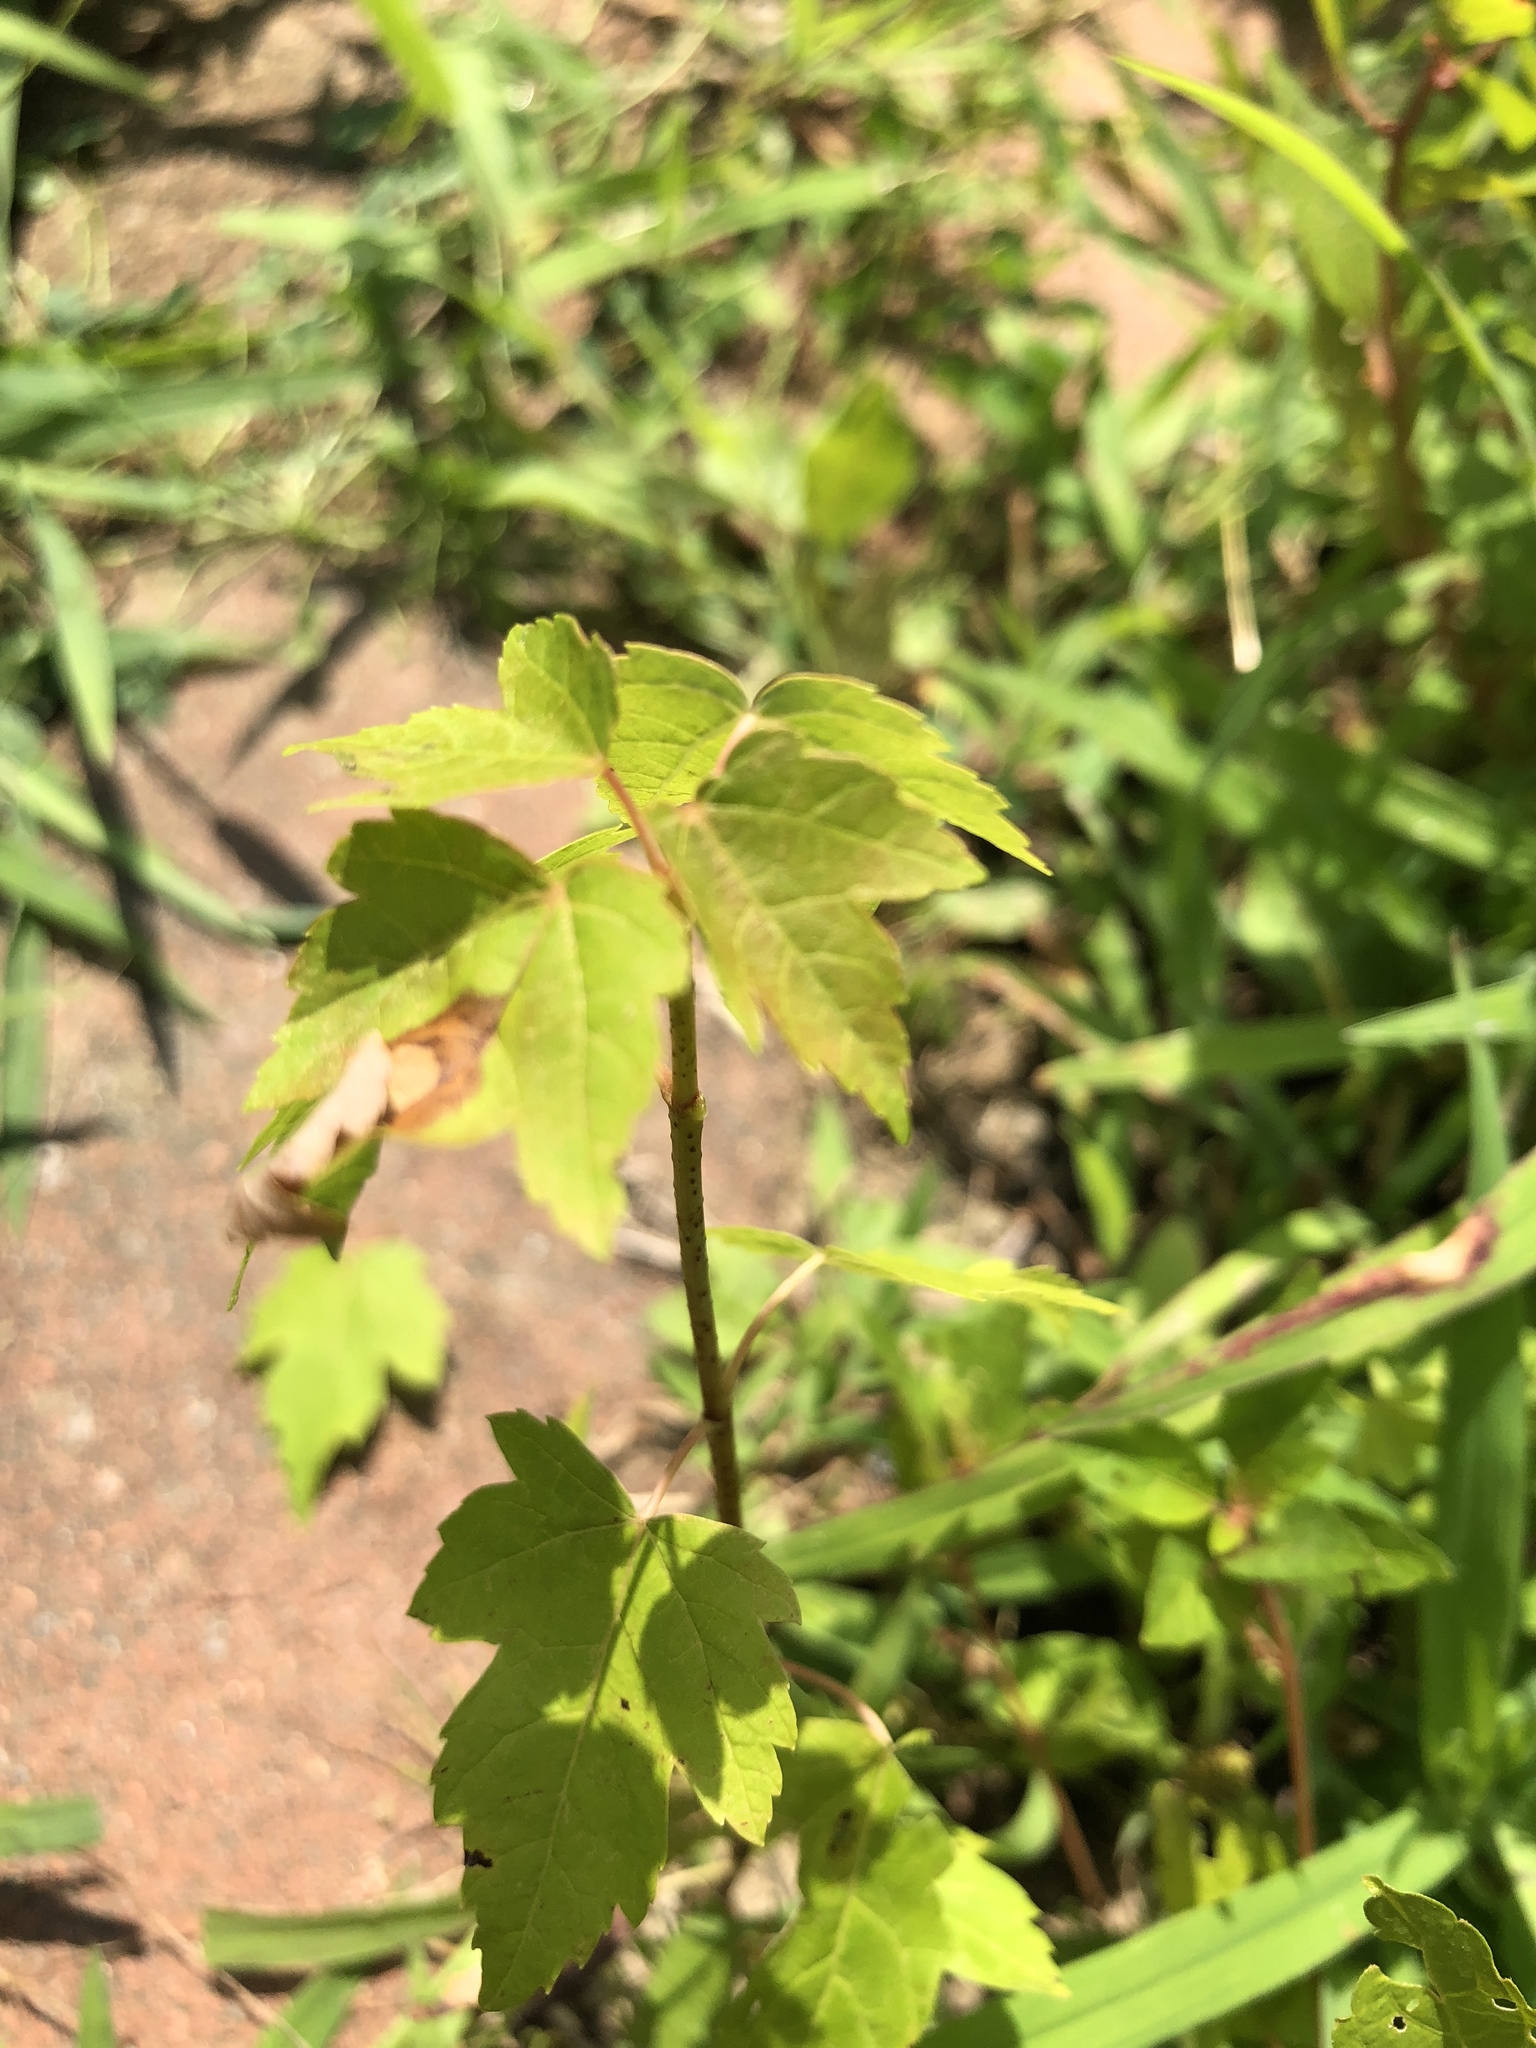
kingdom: Plantae
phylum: Tracheophyta
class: Magnoliopsida
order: Sapindales
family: Sapindaceae
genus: Acer
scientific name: Acer rubrum
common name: Red maple
